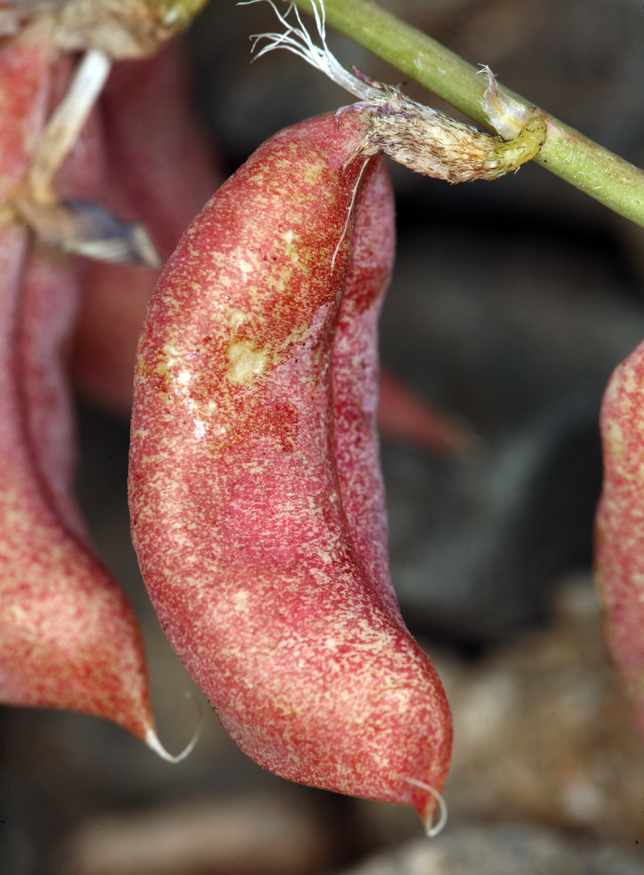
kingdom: Plantae
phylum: Tracheophyta
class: Magnoliopsida
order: Fabales
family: Fabaceae
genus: Astragalus
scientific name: Astragalus cimae
